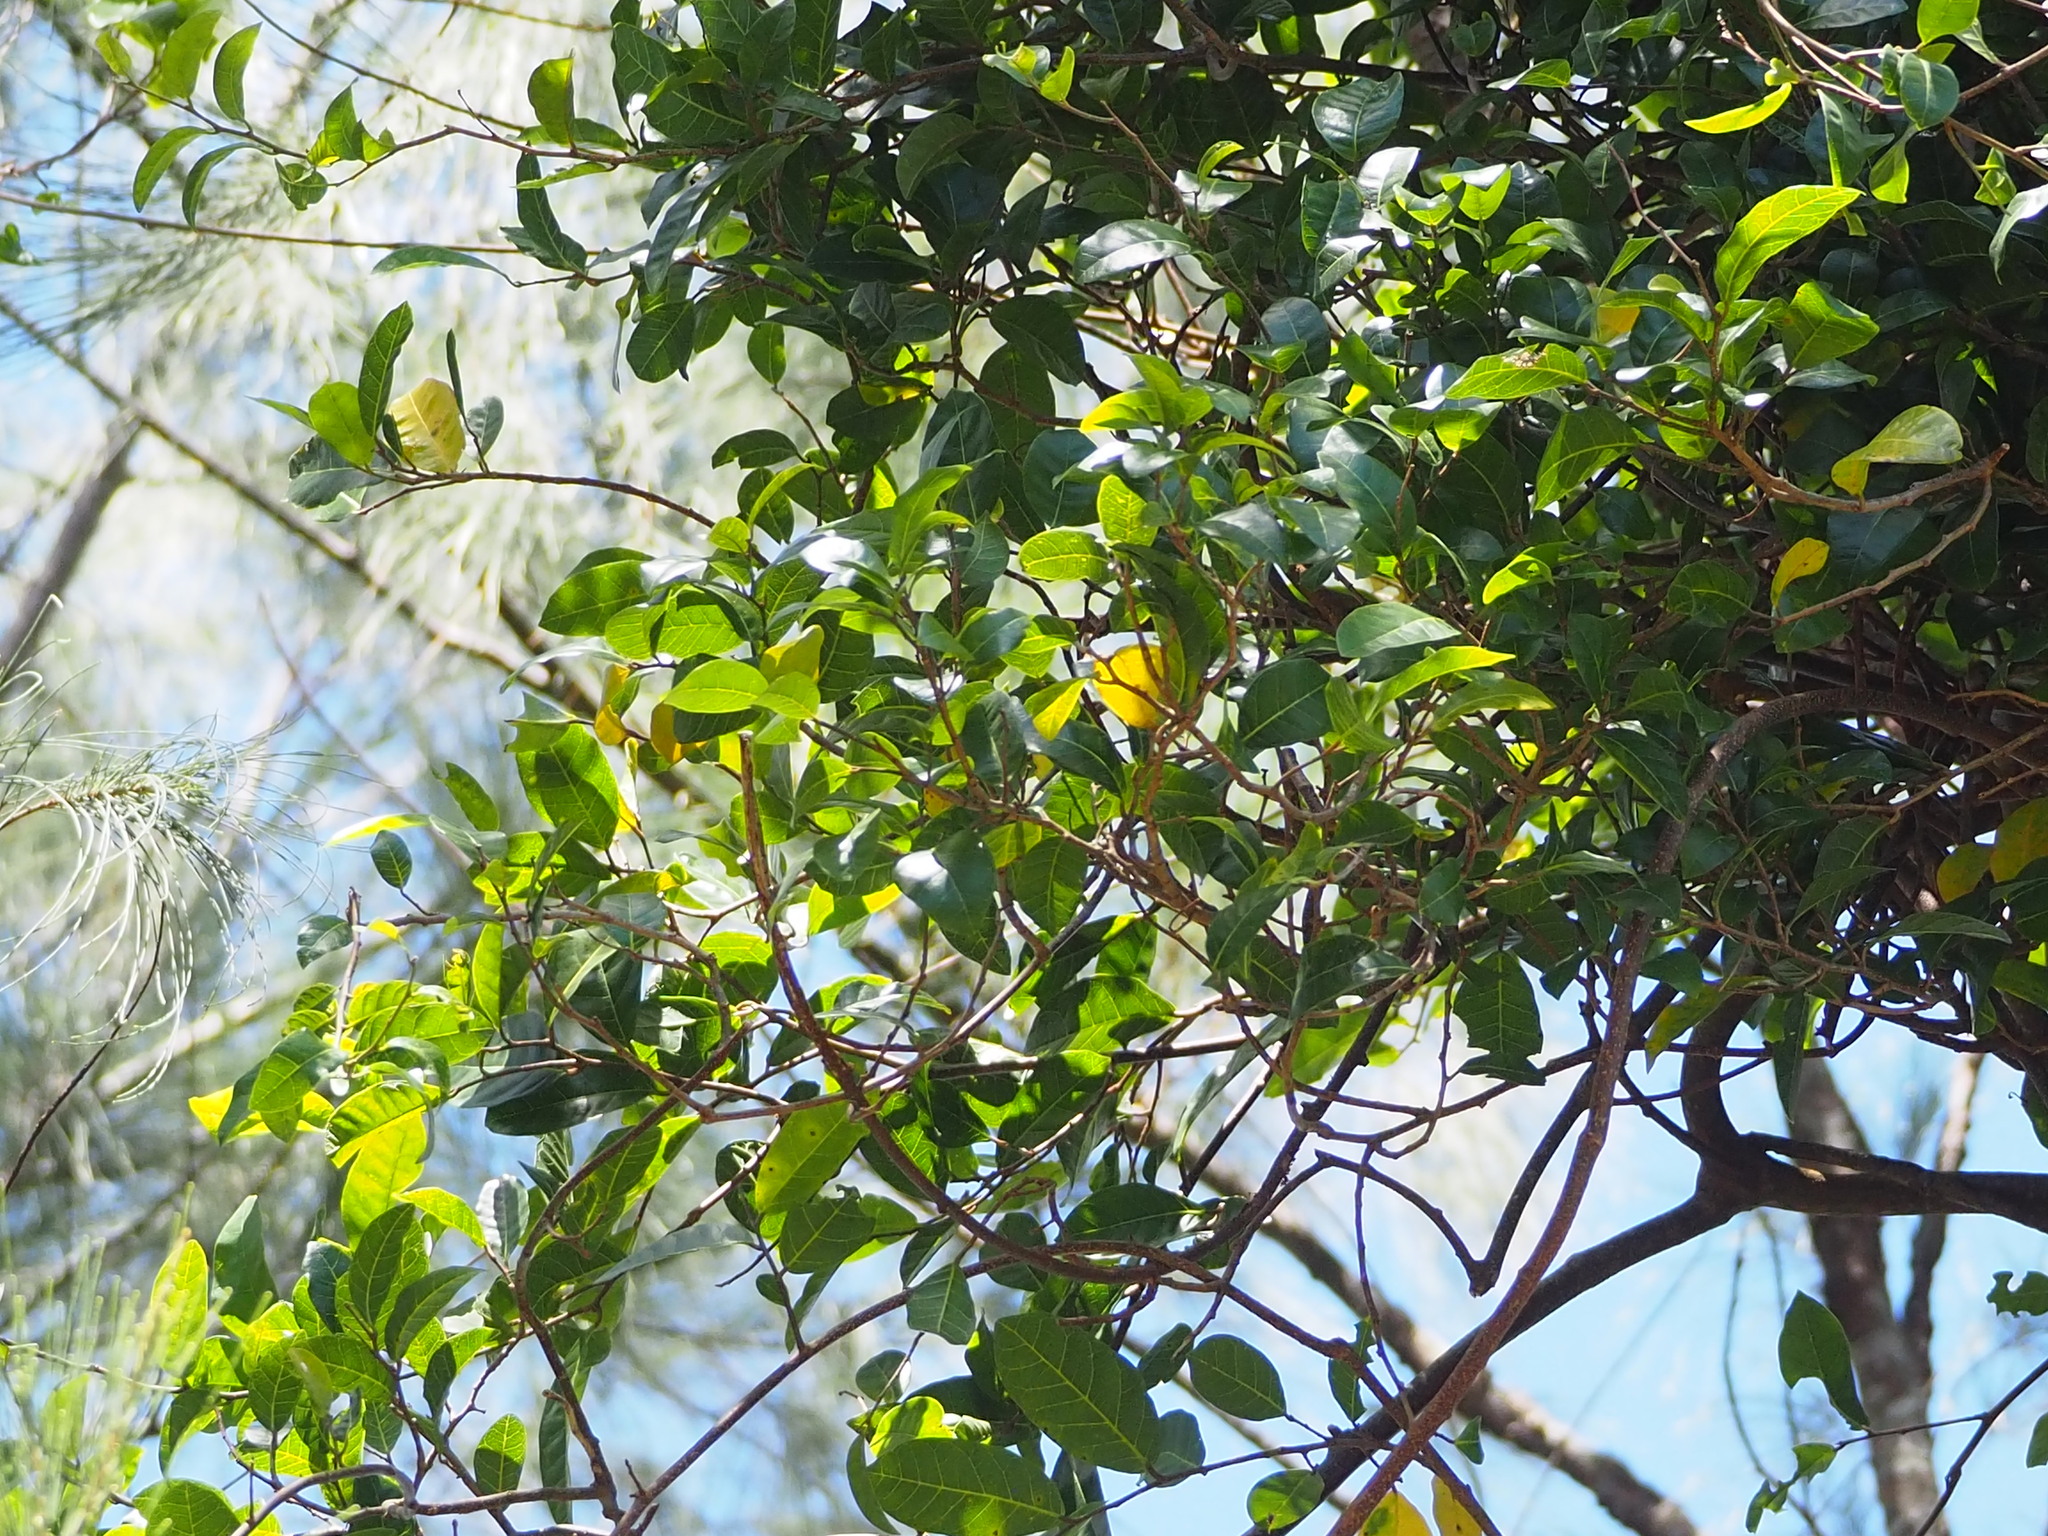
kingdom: Plantae
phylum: Tracheophyta
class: Magnoliopsida
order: Rosales
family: Moraceae
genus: Malaisia
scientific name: Malaisia scandens
